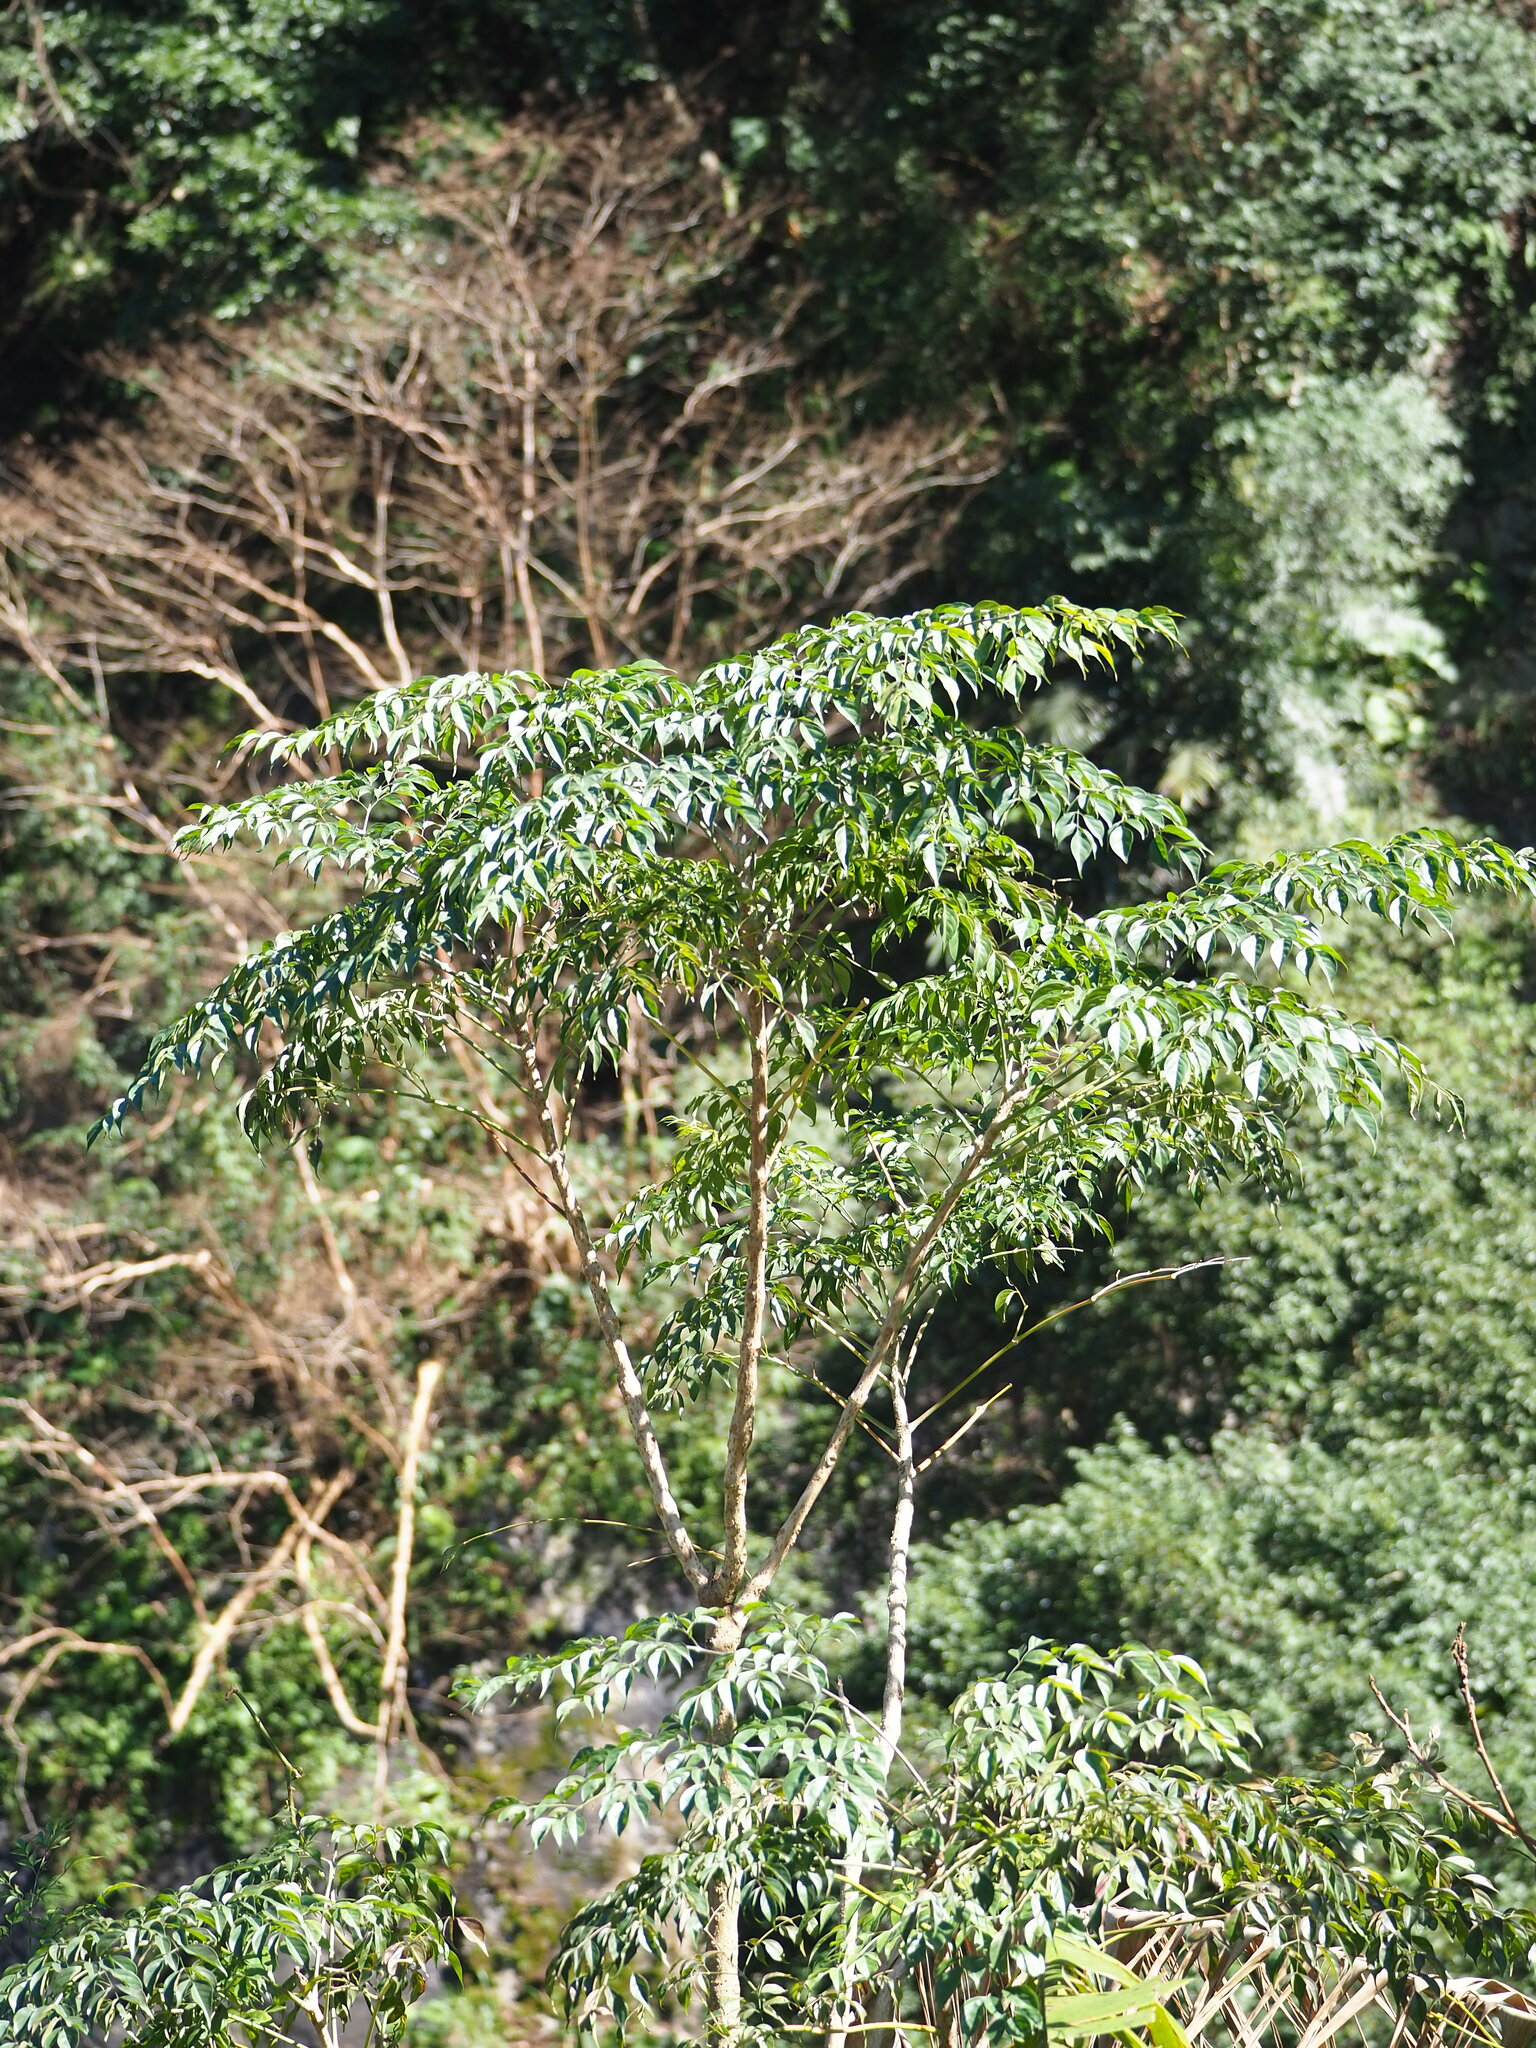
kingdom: Plantae
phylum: Tracheophyta
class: Magnoliopsida
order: Lamiales
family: Bignoniaceae
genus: Radermachera
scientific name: Radermachera sinica
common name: China doll plant
